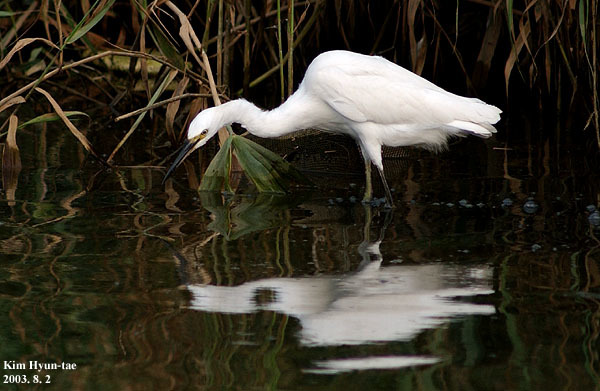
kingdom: Animalia
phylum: Chordata
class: Aves
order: Pelecaniformes
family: Ardeidae
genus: Egretta
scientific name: Egretta garzetta
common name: Little egret
